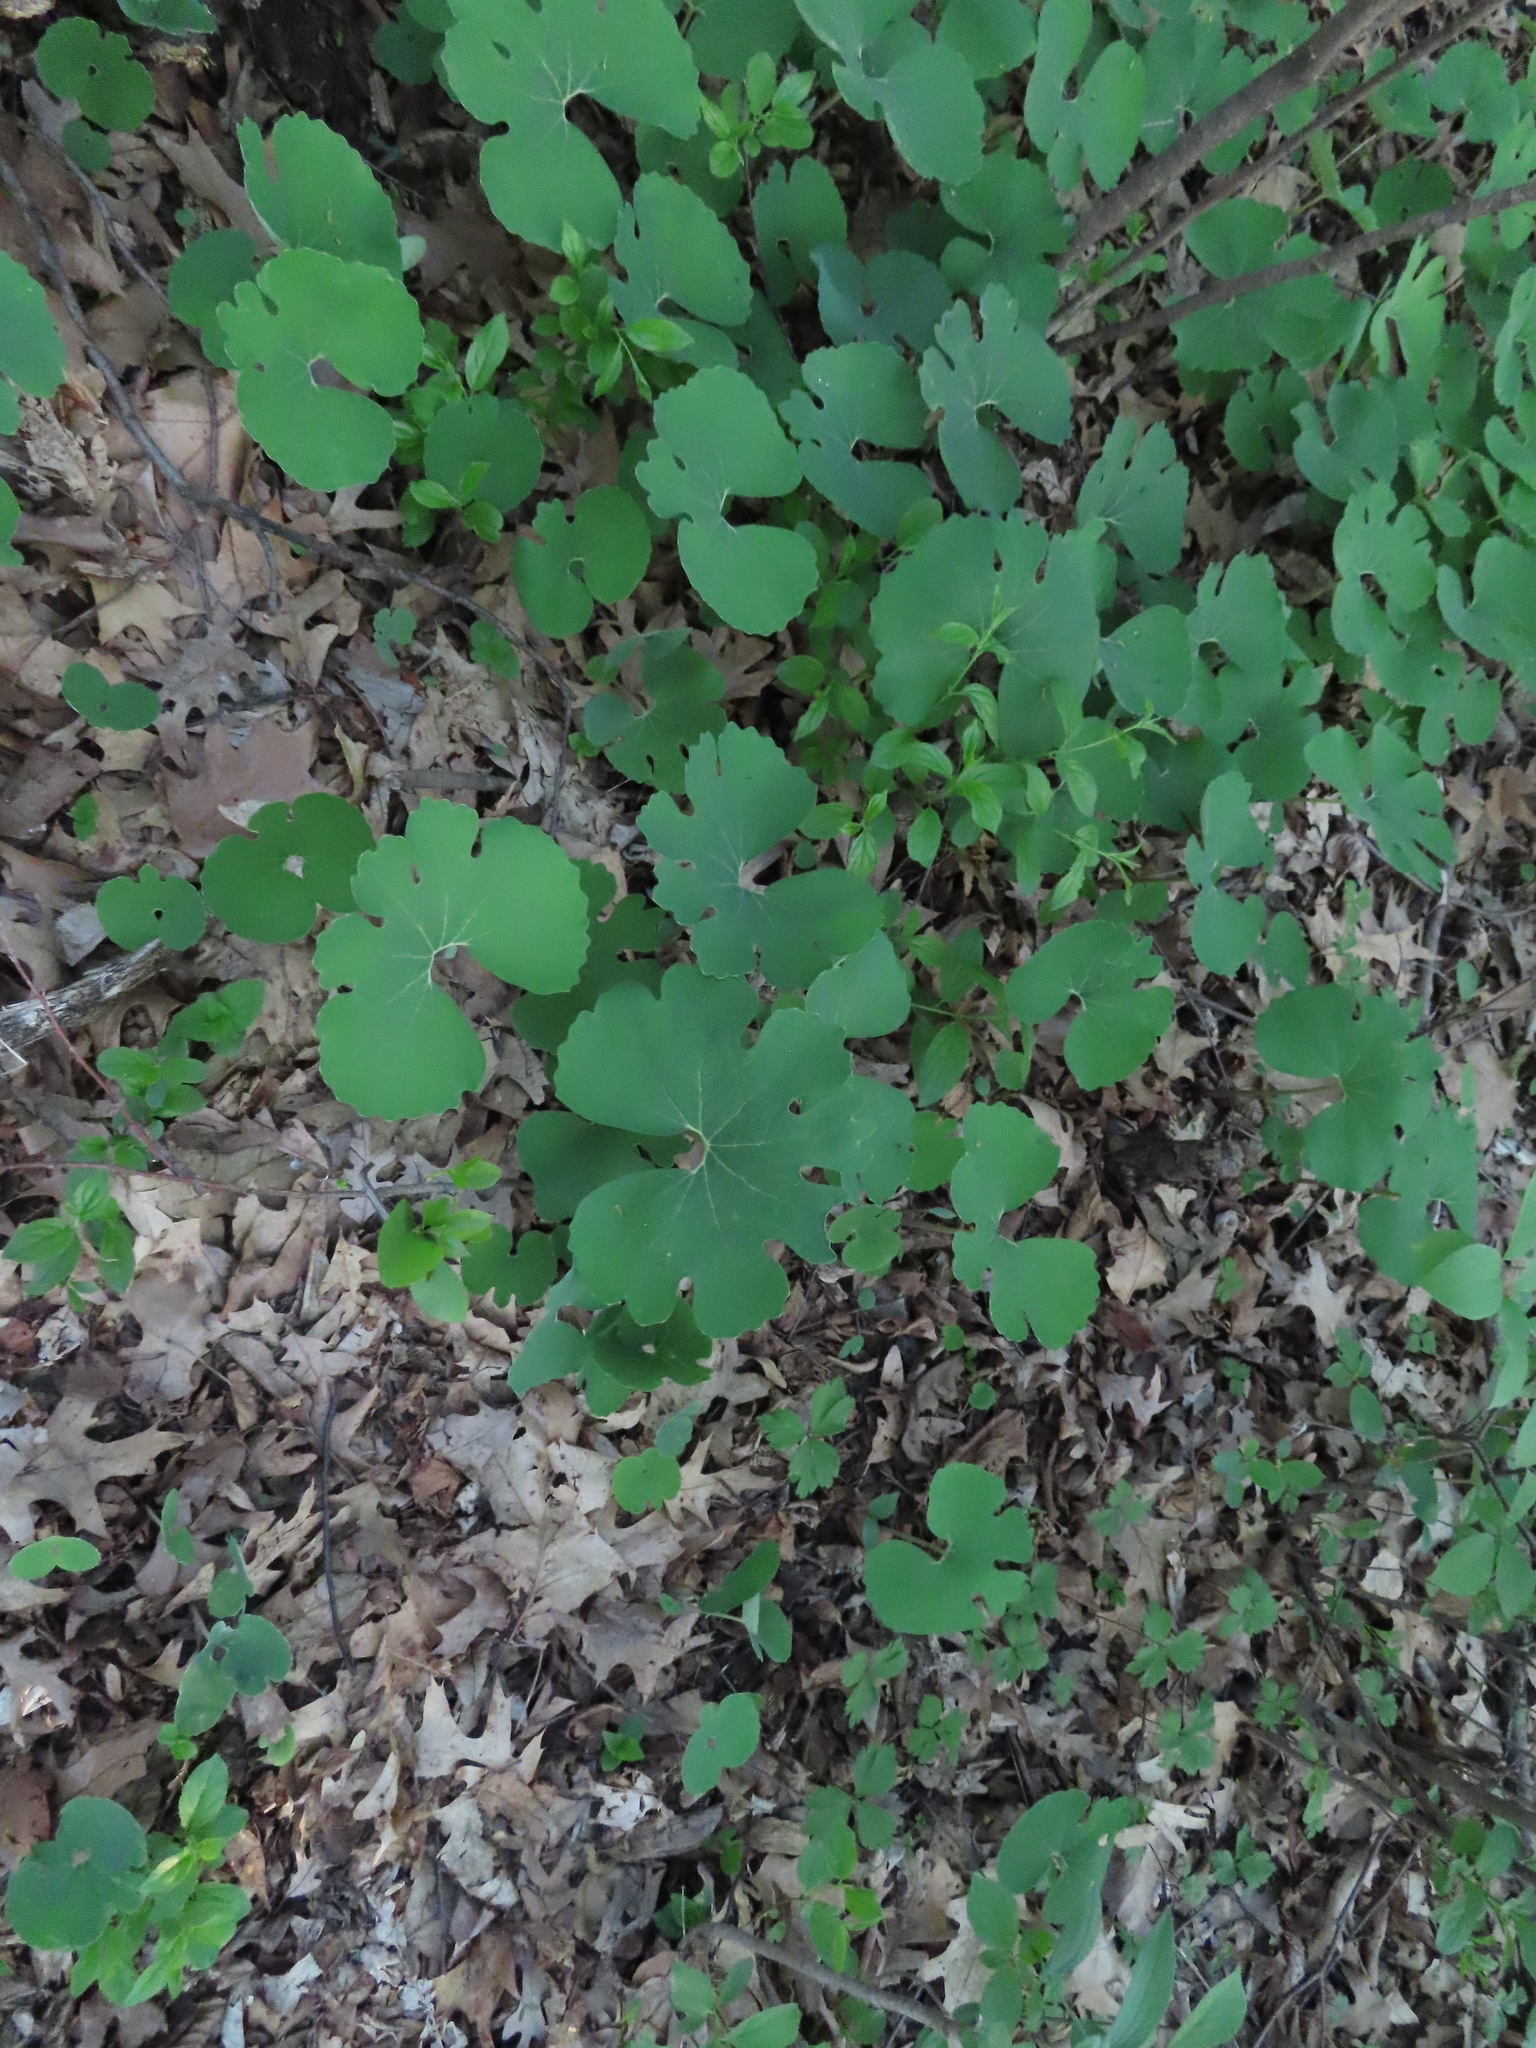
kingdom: Plantae
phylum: Tracheophyta
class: Magnoliopsida
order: Ranunculales
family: Papaveraceae
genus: Sanguinaria
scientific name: Sanguinaria canadensis
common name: Bloodroot
